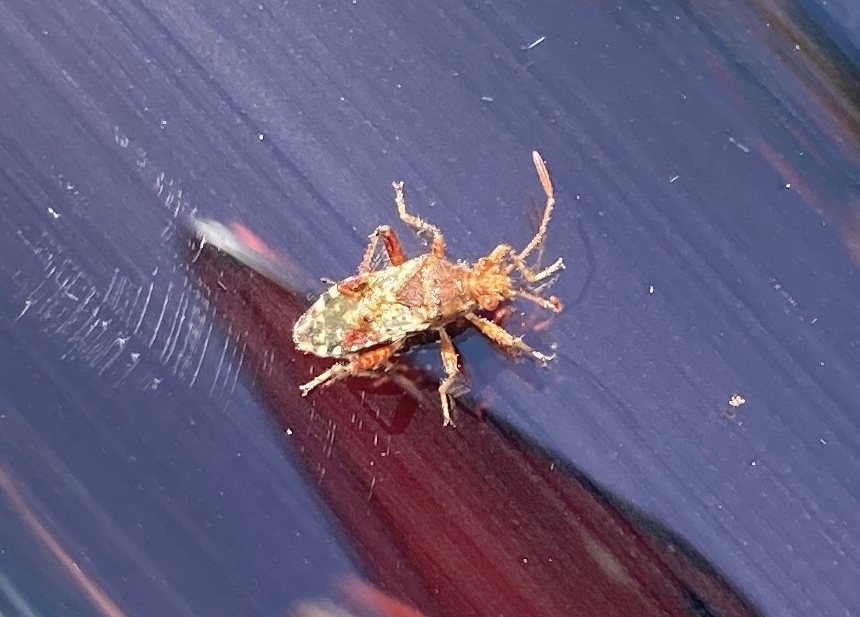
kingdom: Animalia
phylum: Arthropoda
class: Insecta
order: Hemiptera
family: Rhopalidae
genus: Rhopalus
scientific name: Rhopalus subrufus
